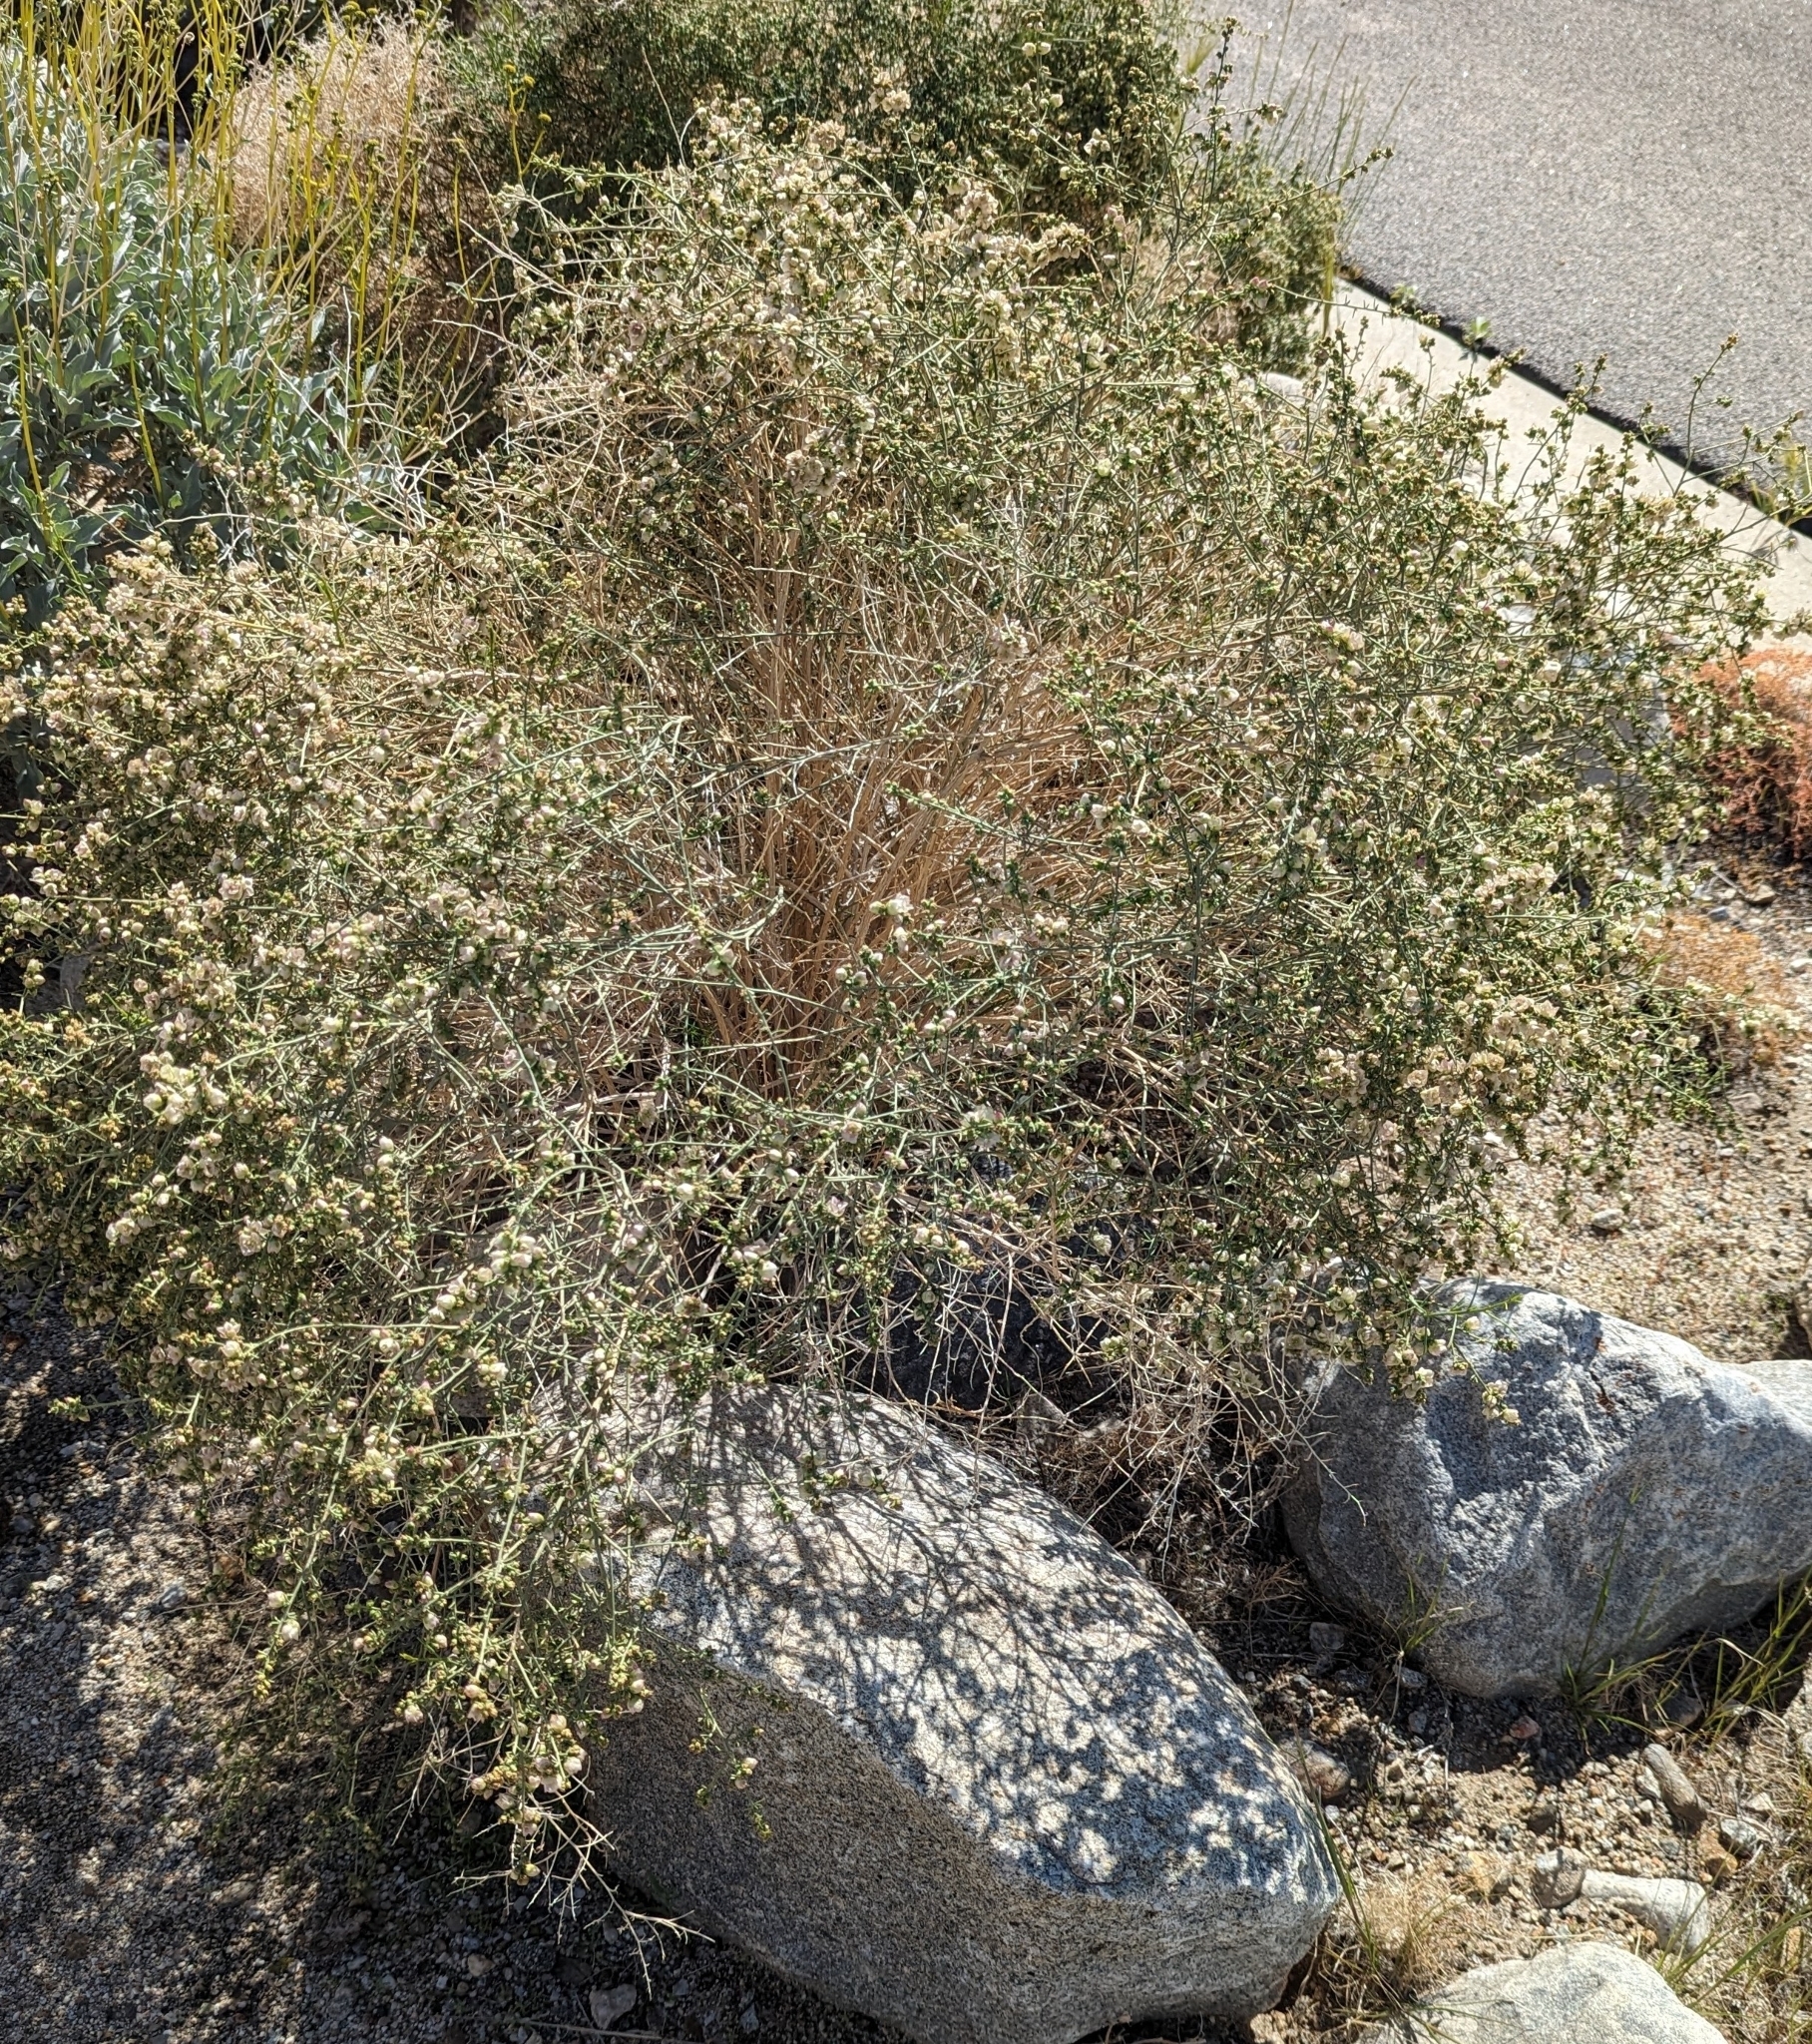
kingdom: Plantae
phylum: Tracheophyta
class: Magnoliopsida
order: Asterales
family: Asteraceae
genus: Ambrosia
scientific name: Ambrosia salsola
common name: Burrobrush
